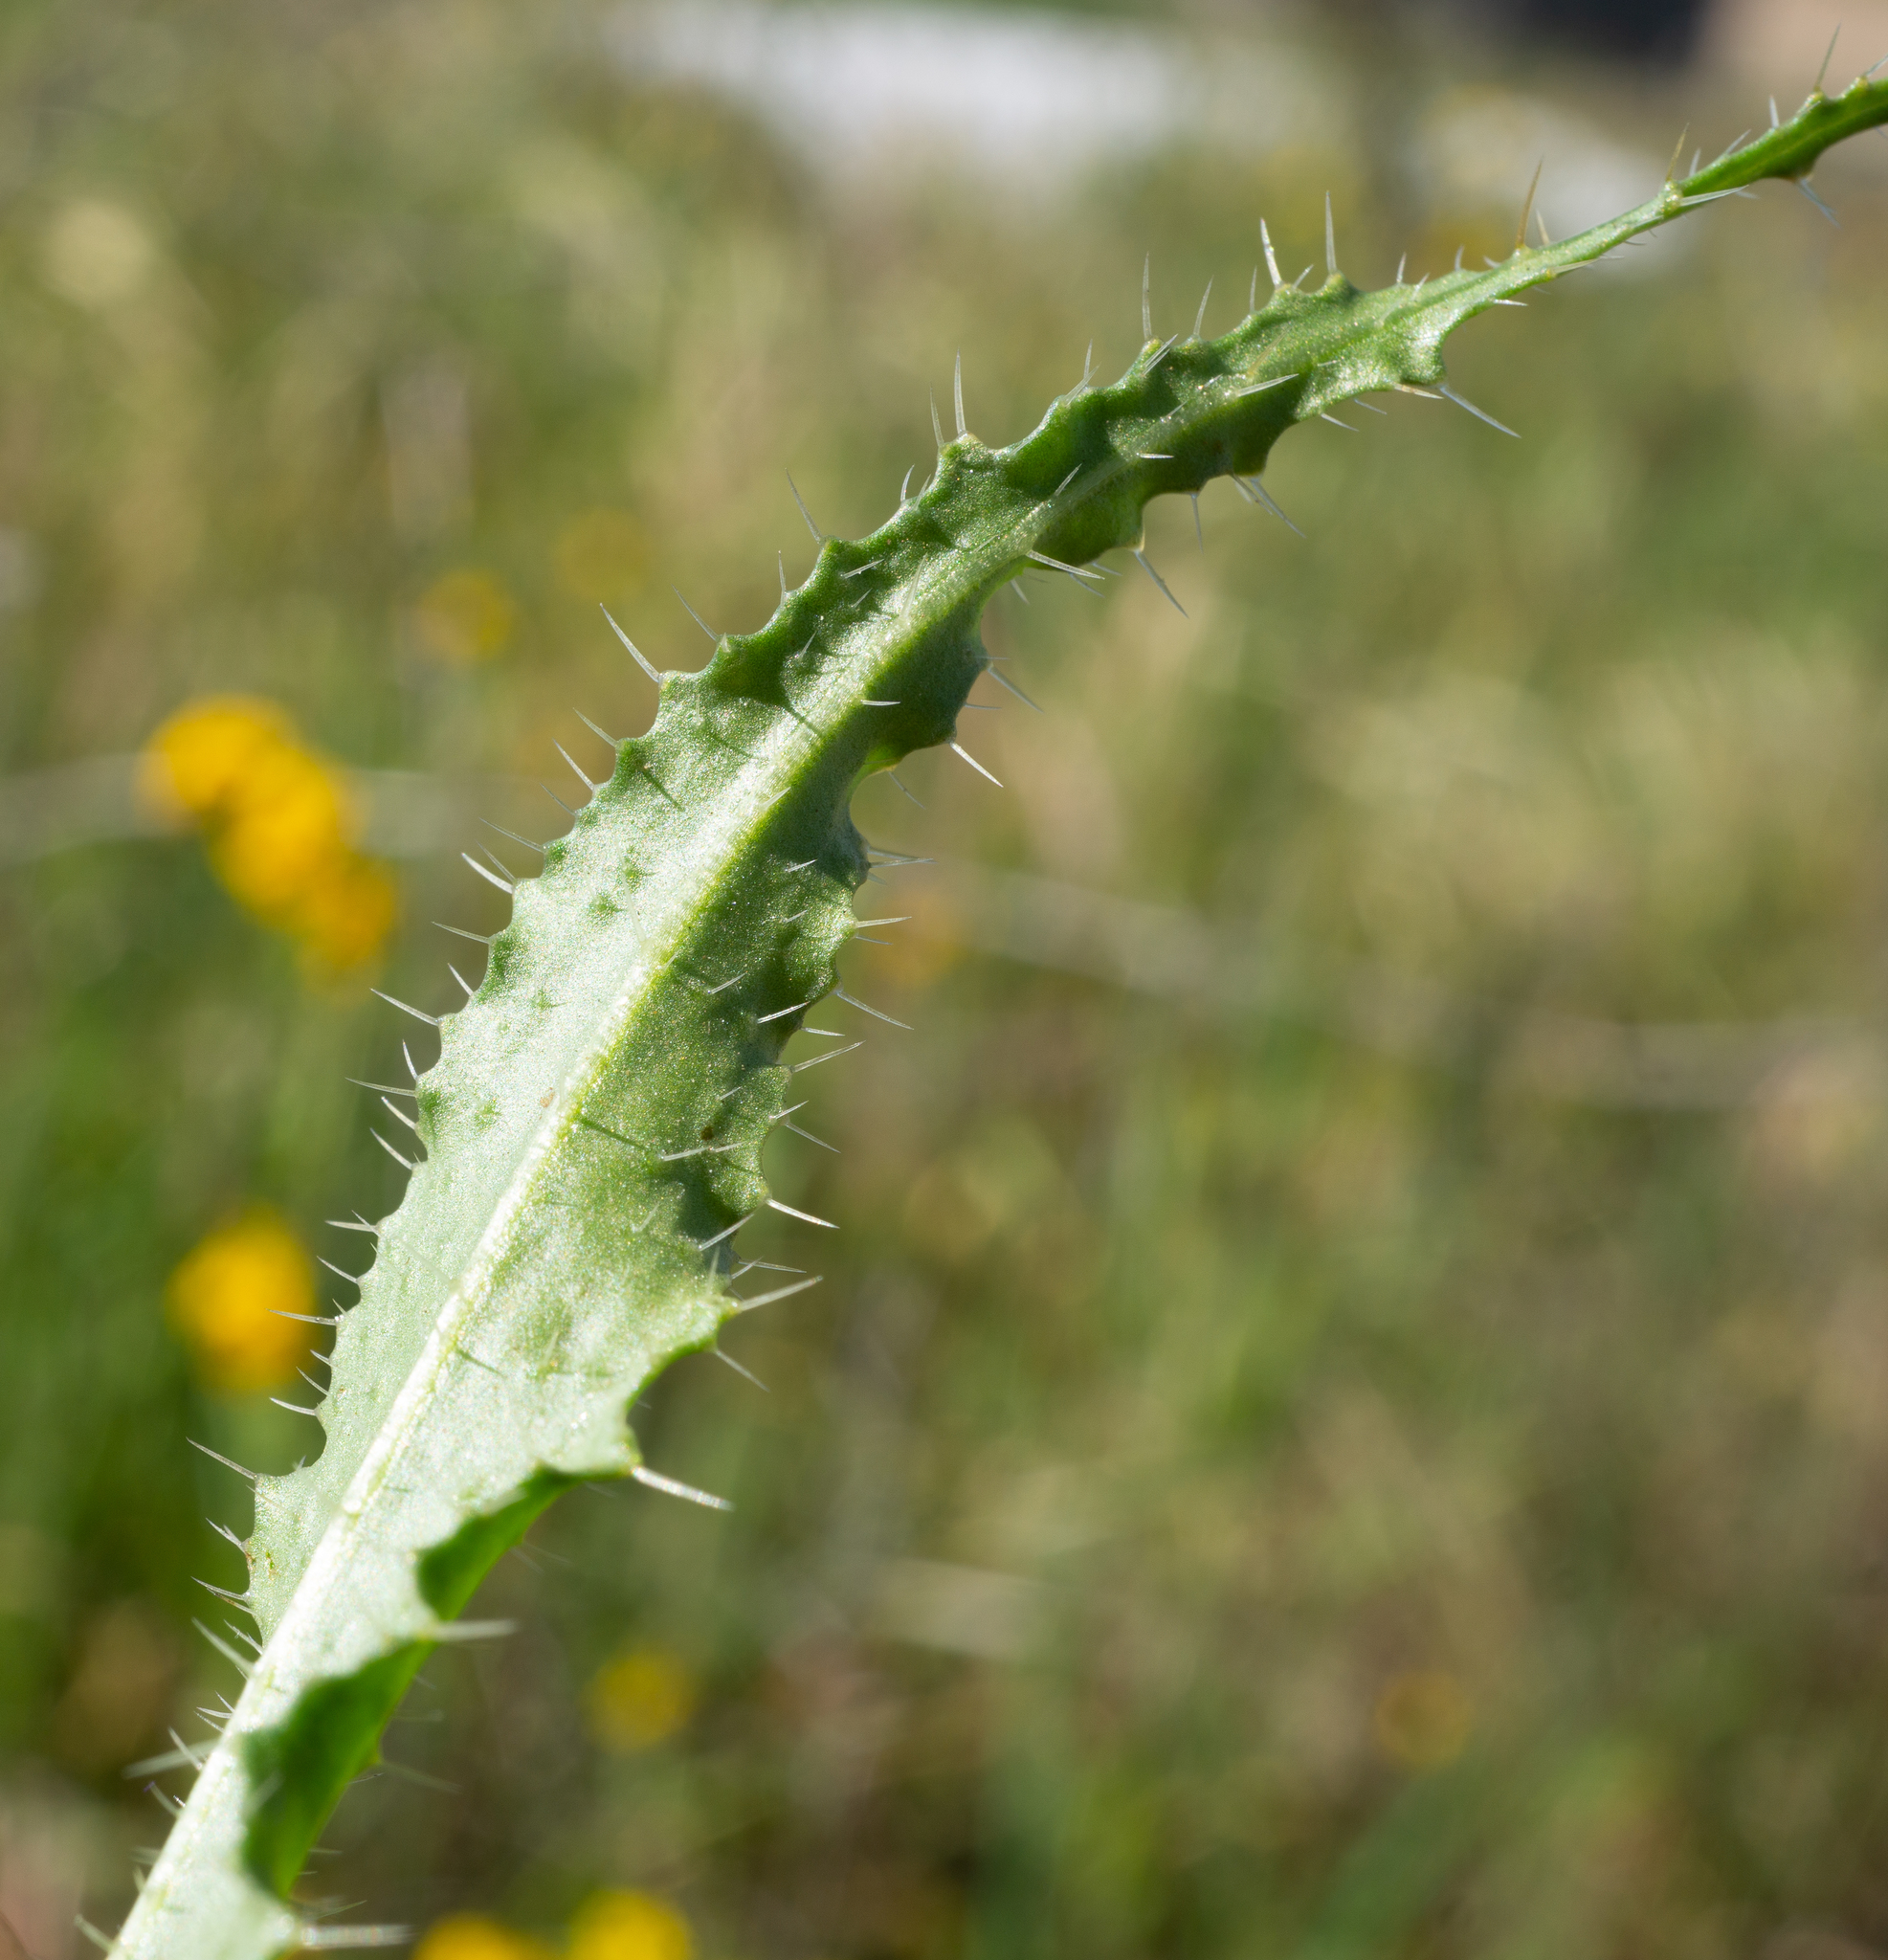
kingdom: Plantae
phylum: Tracheophyta
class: Magnoliopsida
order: Boraginales
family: Boraginaceae
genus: Amsinckia
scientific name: Amsinckia spectabilis
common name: Seaside fiddleneck
